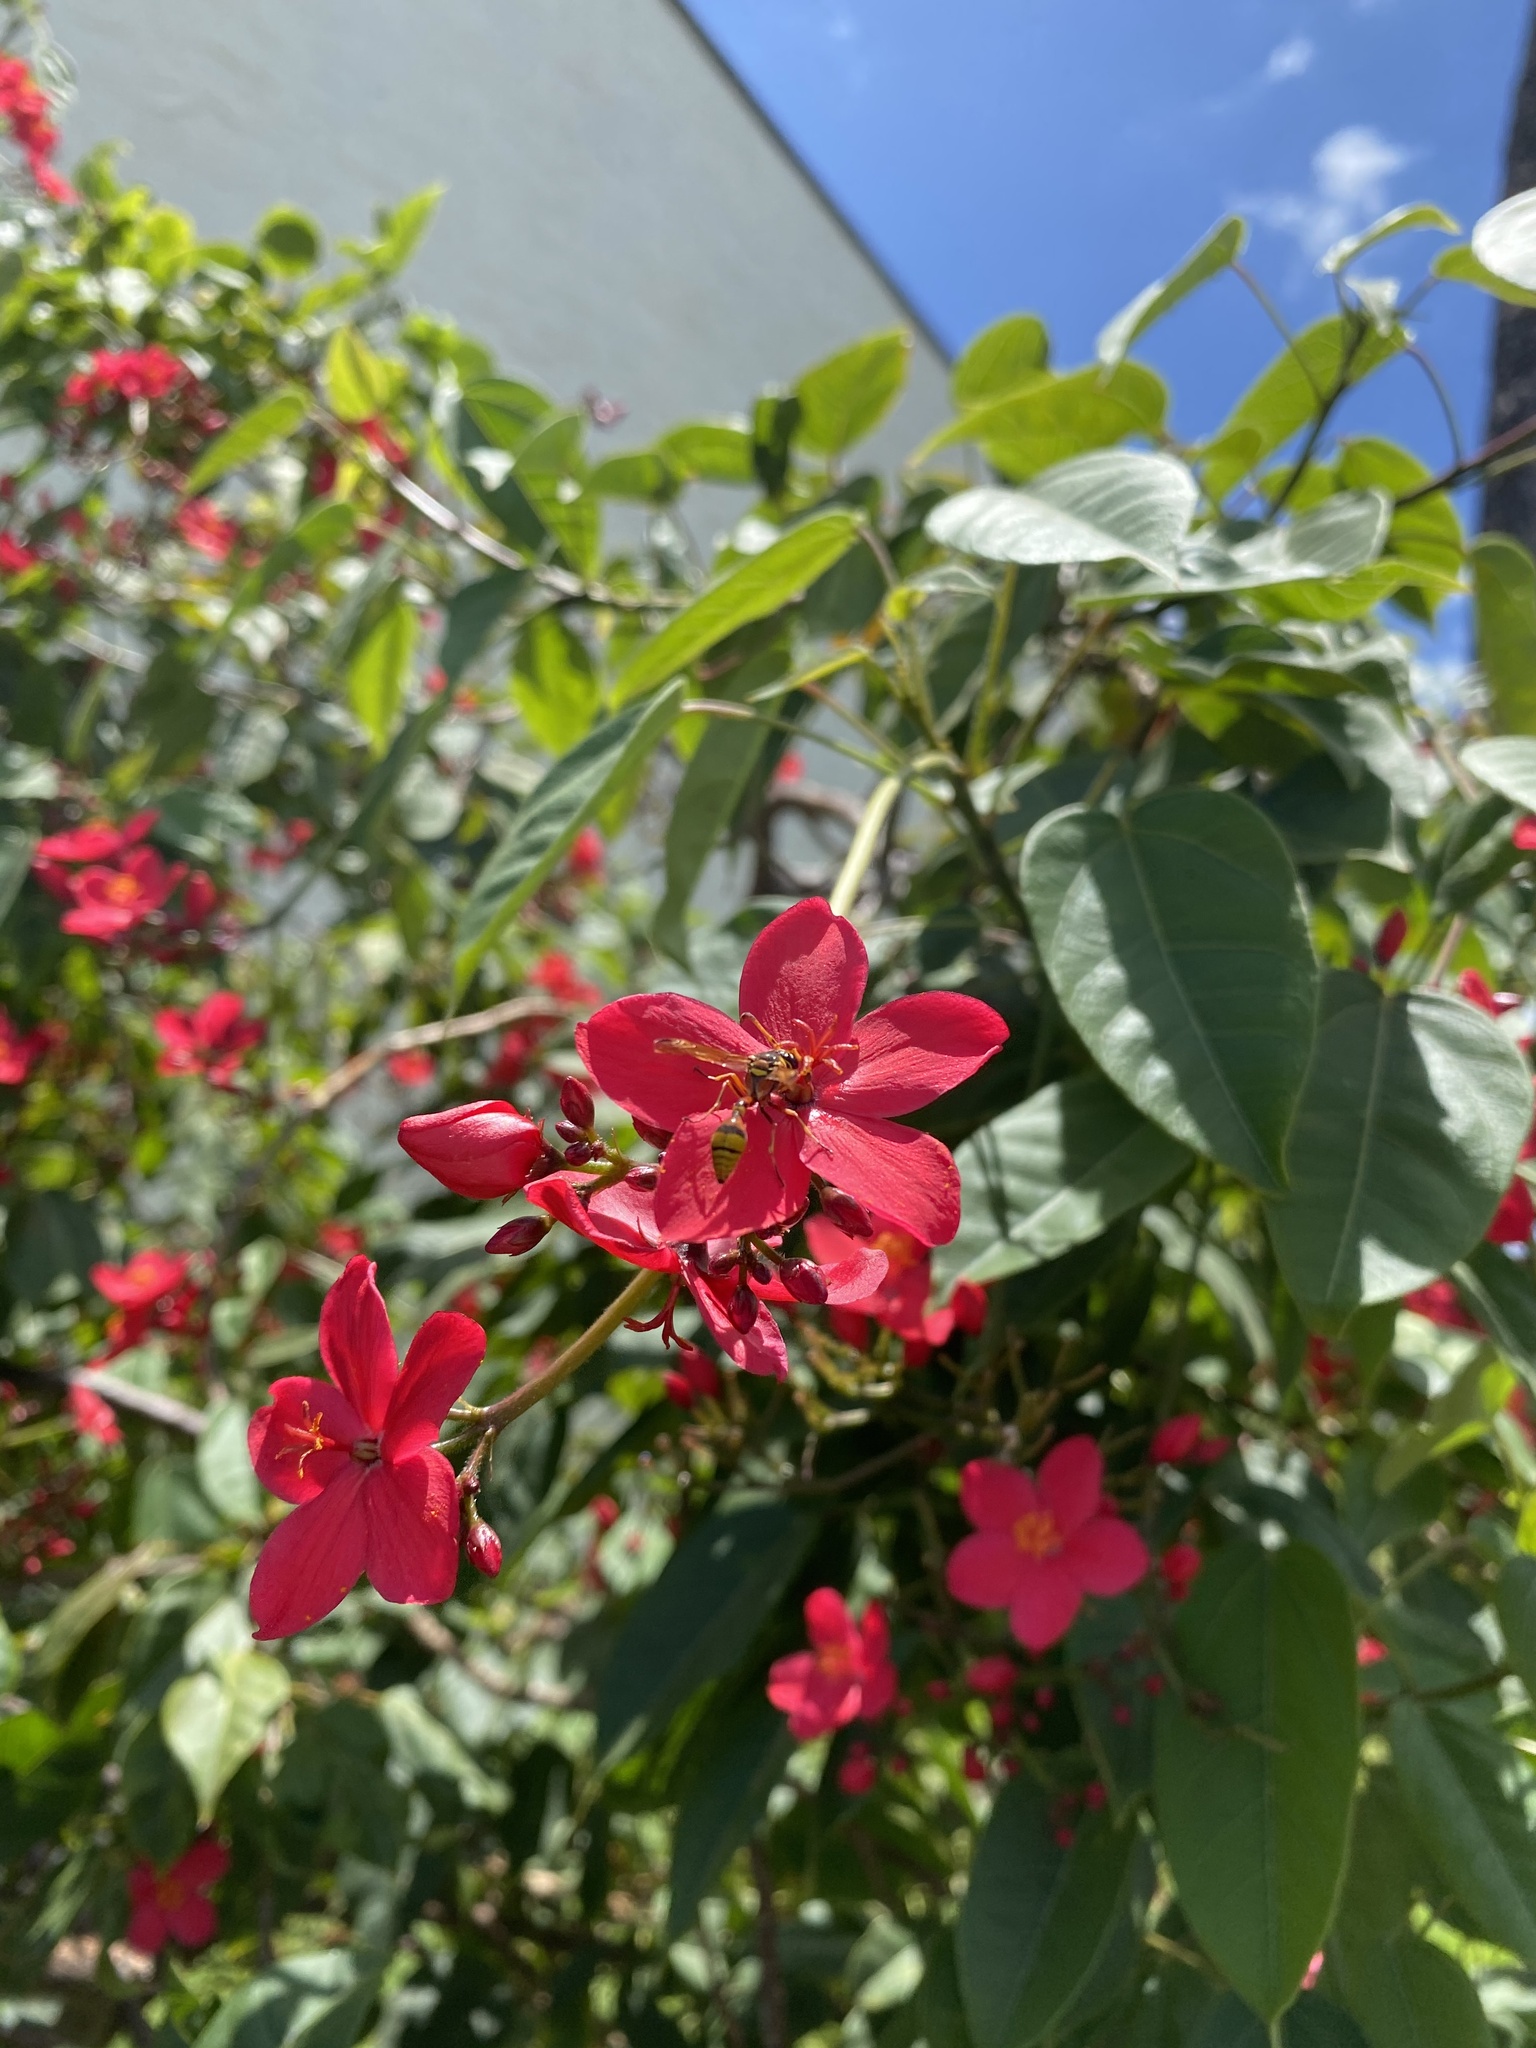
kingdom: Animalia
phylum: Arthropoda
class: Insecta
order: Hymenoptera
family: Eumenidae
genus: Delta
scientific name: Delta esuriens
